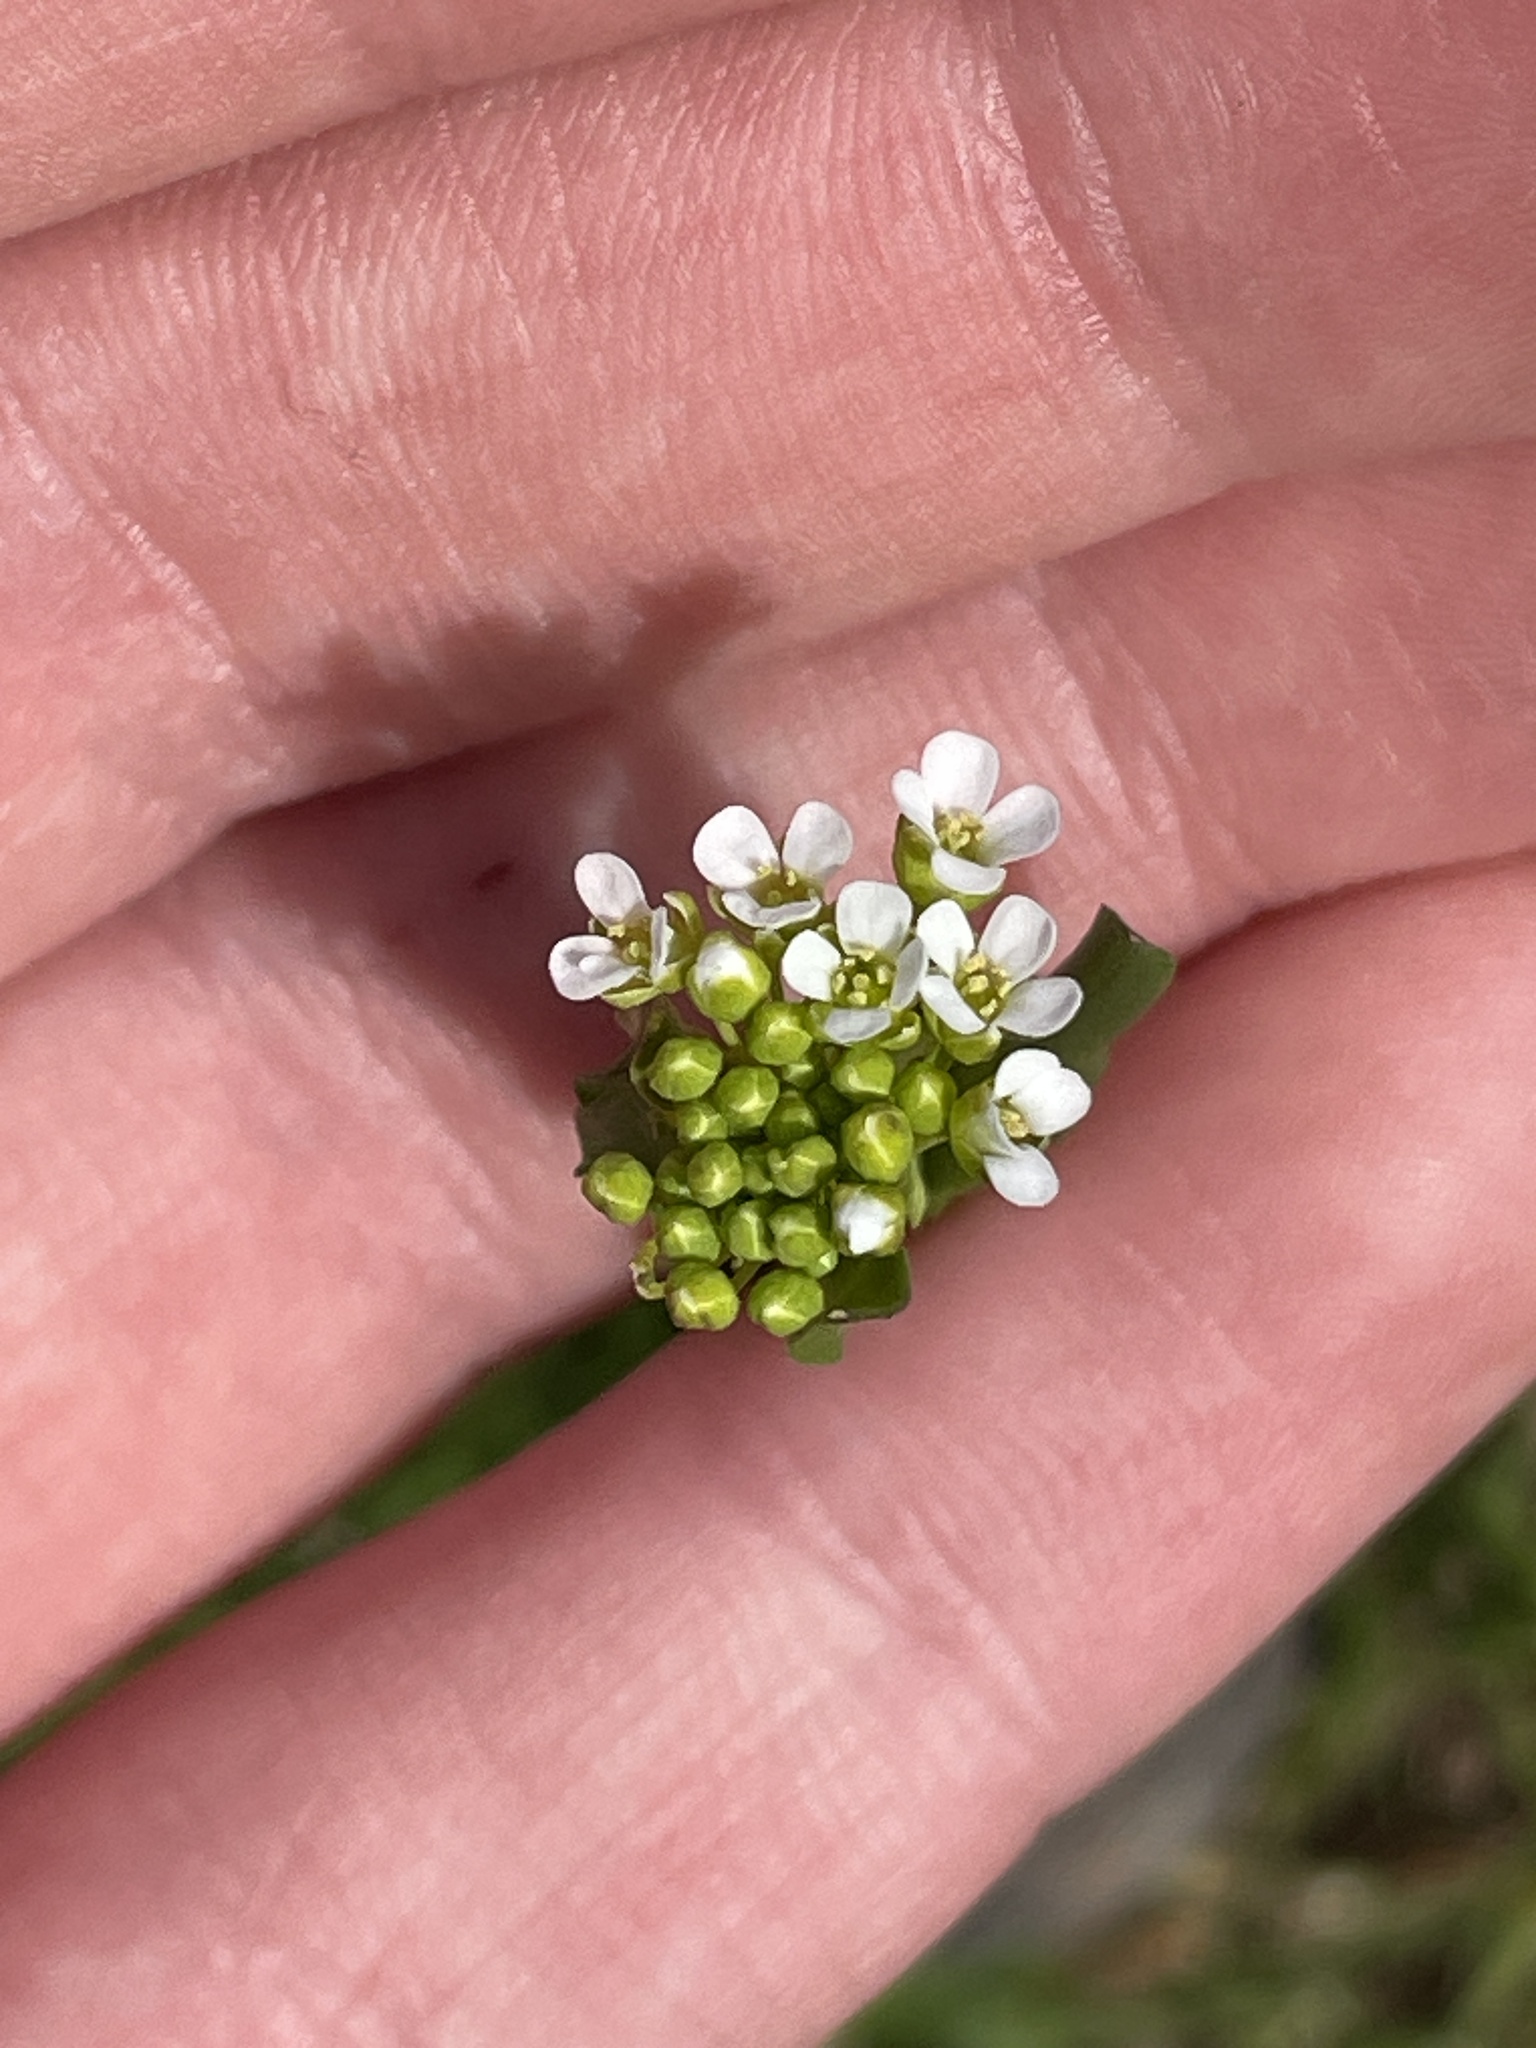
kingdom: Plantae
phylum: Tracheophyta
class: Magnoliopsida
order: Brassicales
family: Brassicaceae
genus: Mummenhoffia
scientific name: Mummenhoffia alliacea
